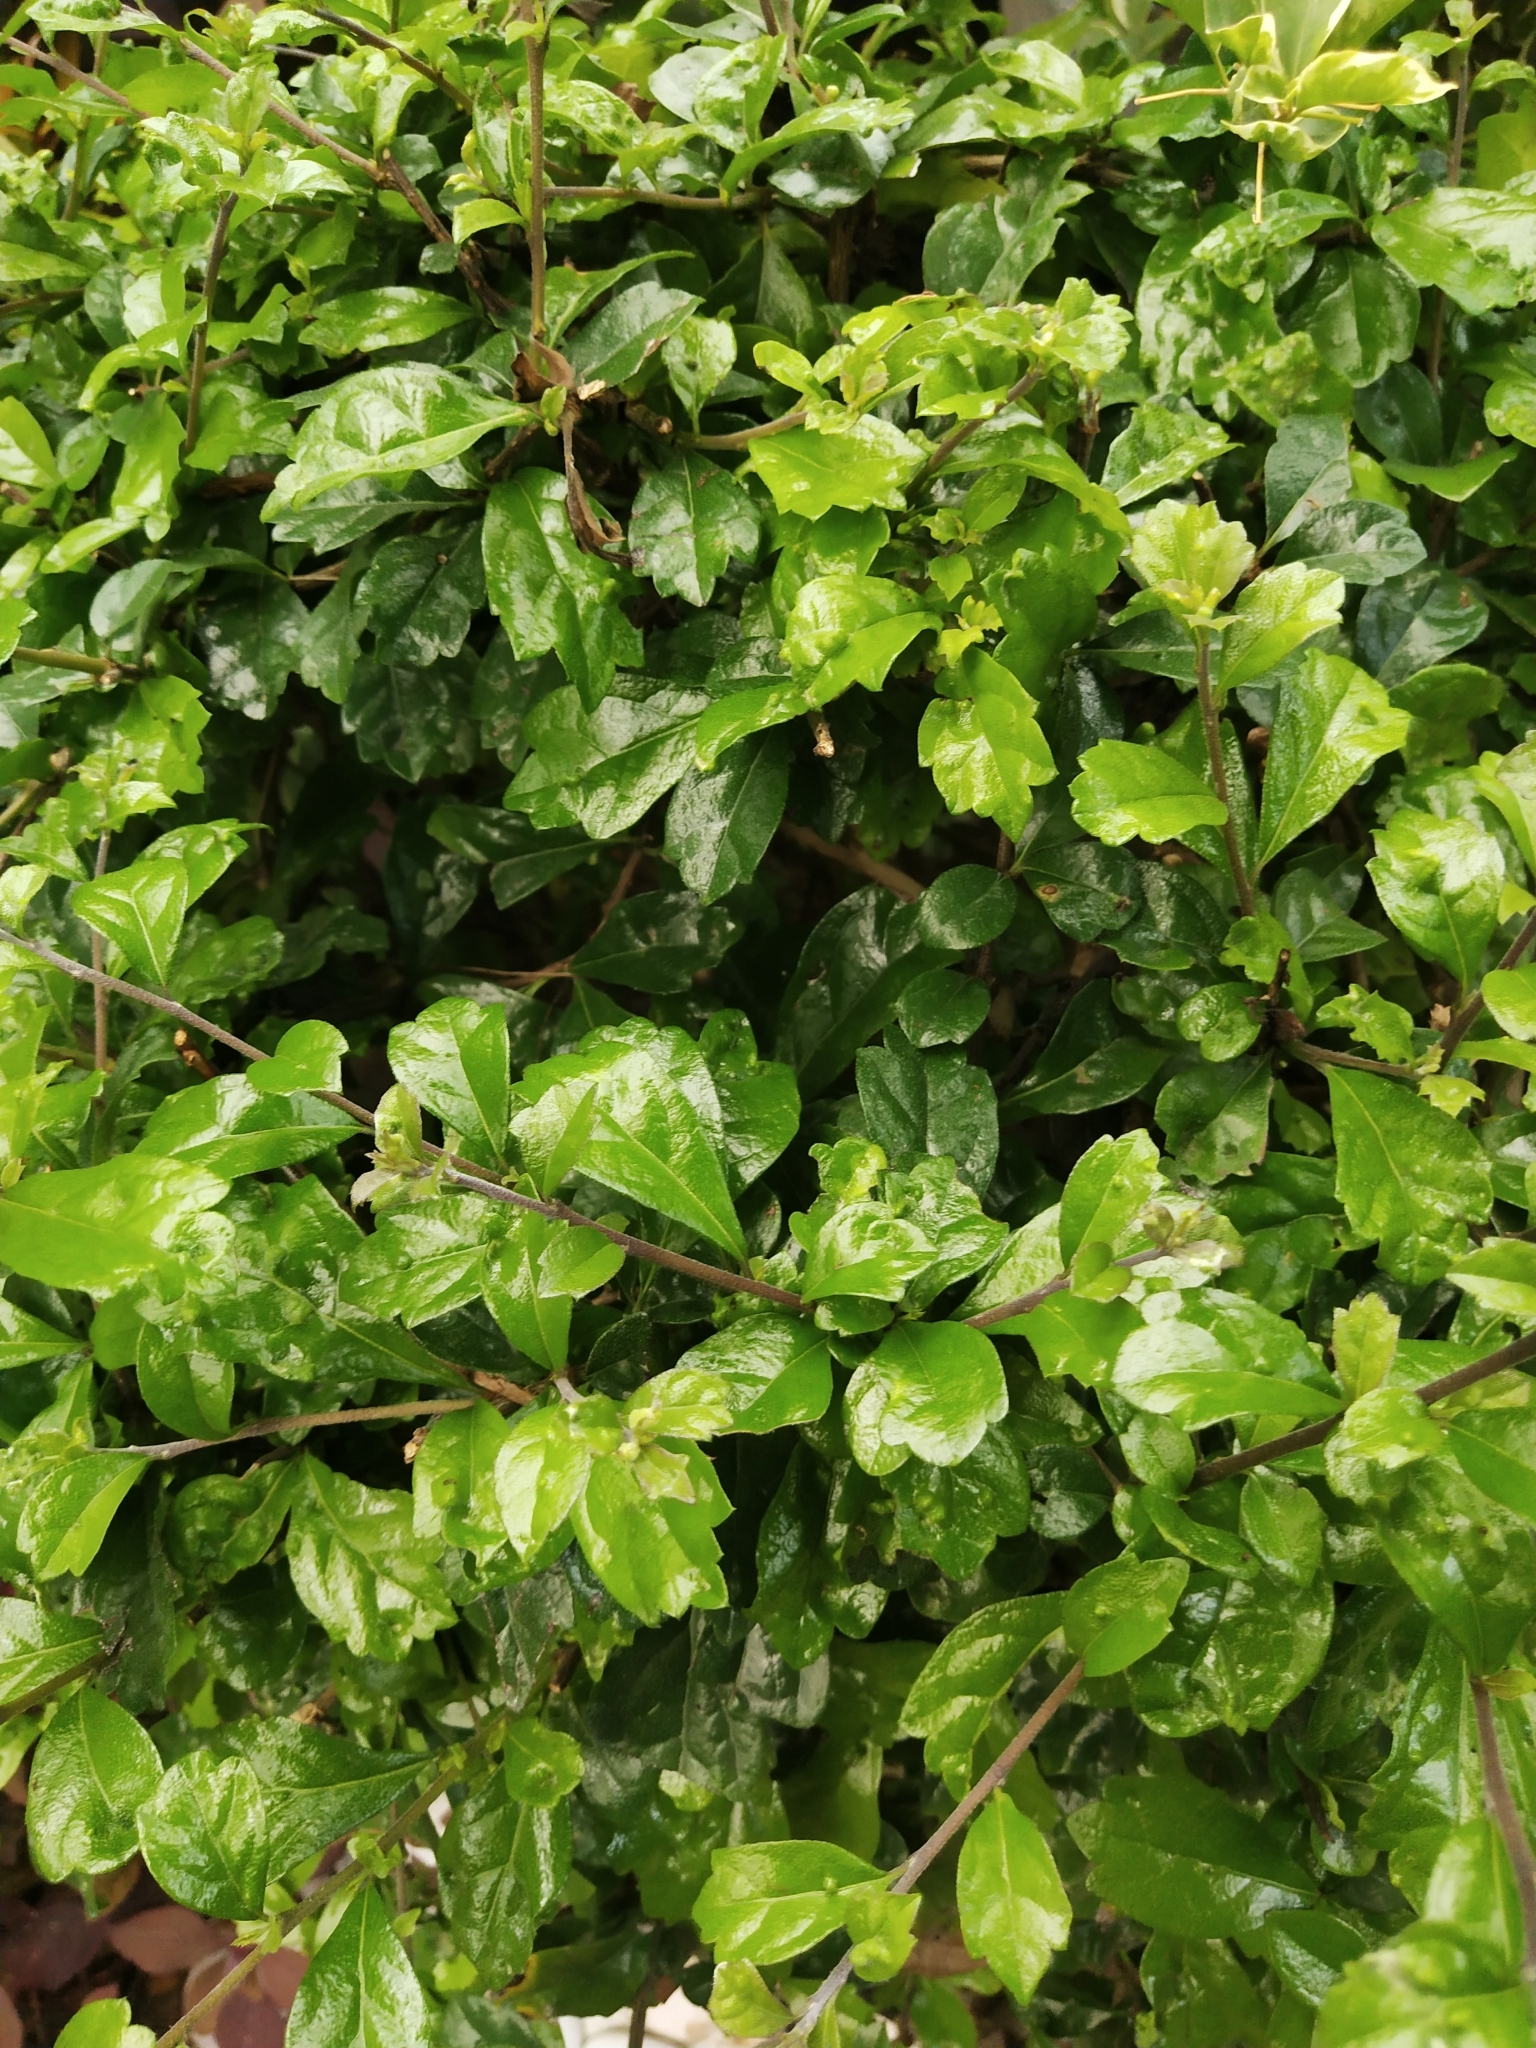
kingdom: Plantae
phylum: Tracheophyta
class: Magnoliopsida
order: Boraginales
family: Ehretiaceae
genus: Ehretia
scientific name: Ehretia microphylla
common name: Fukien-tea
